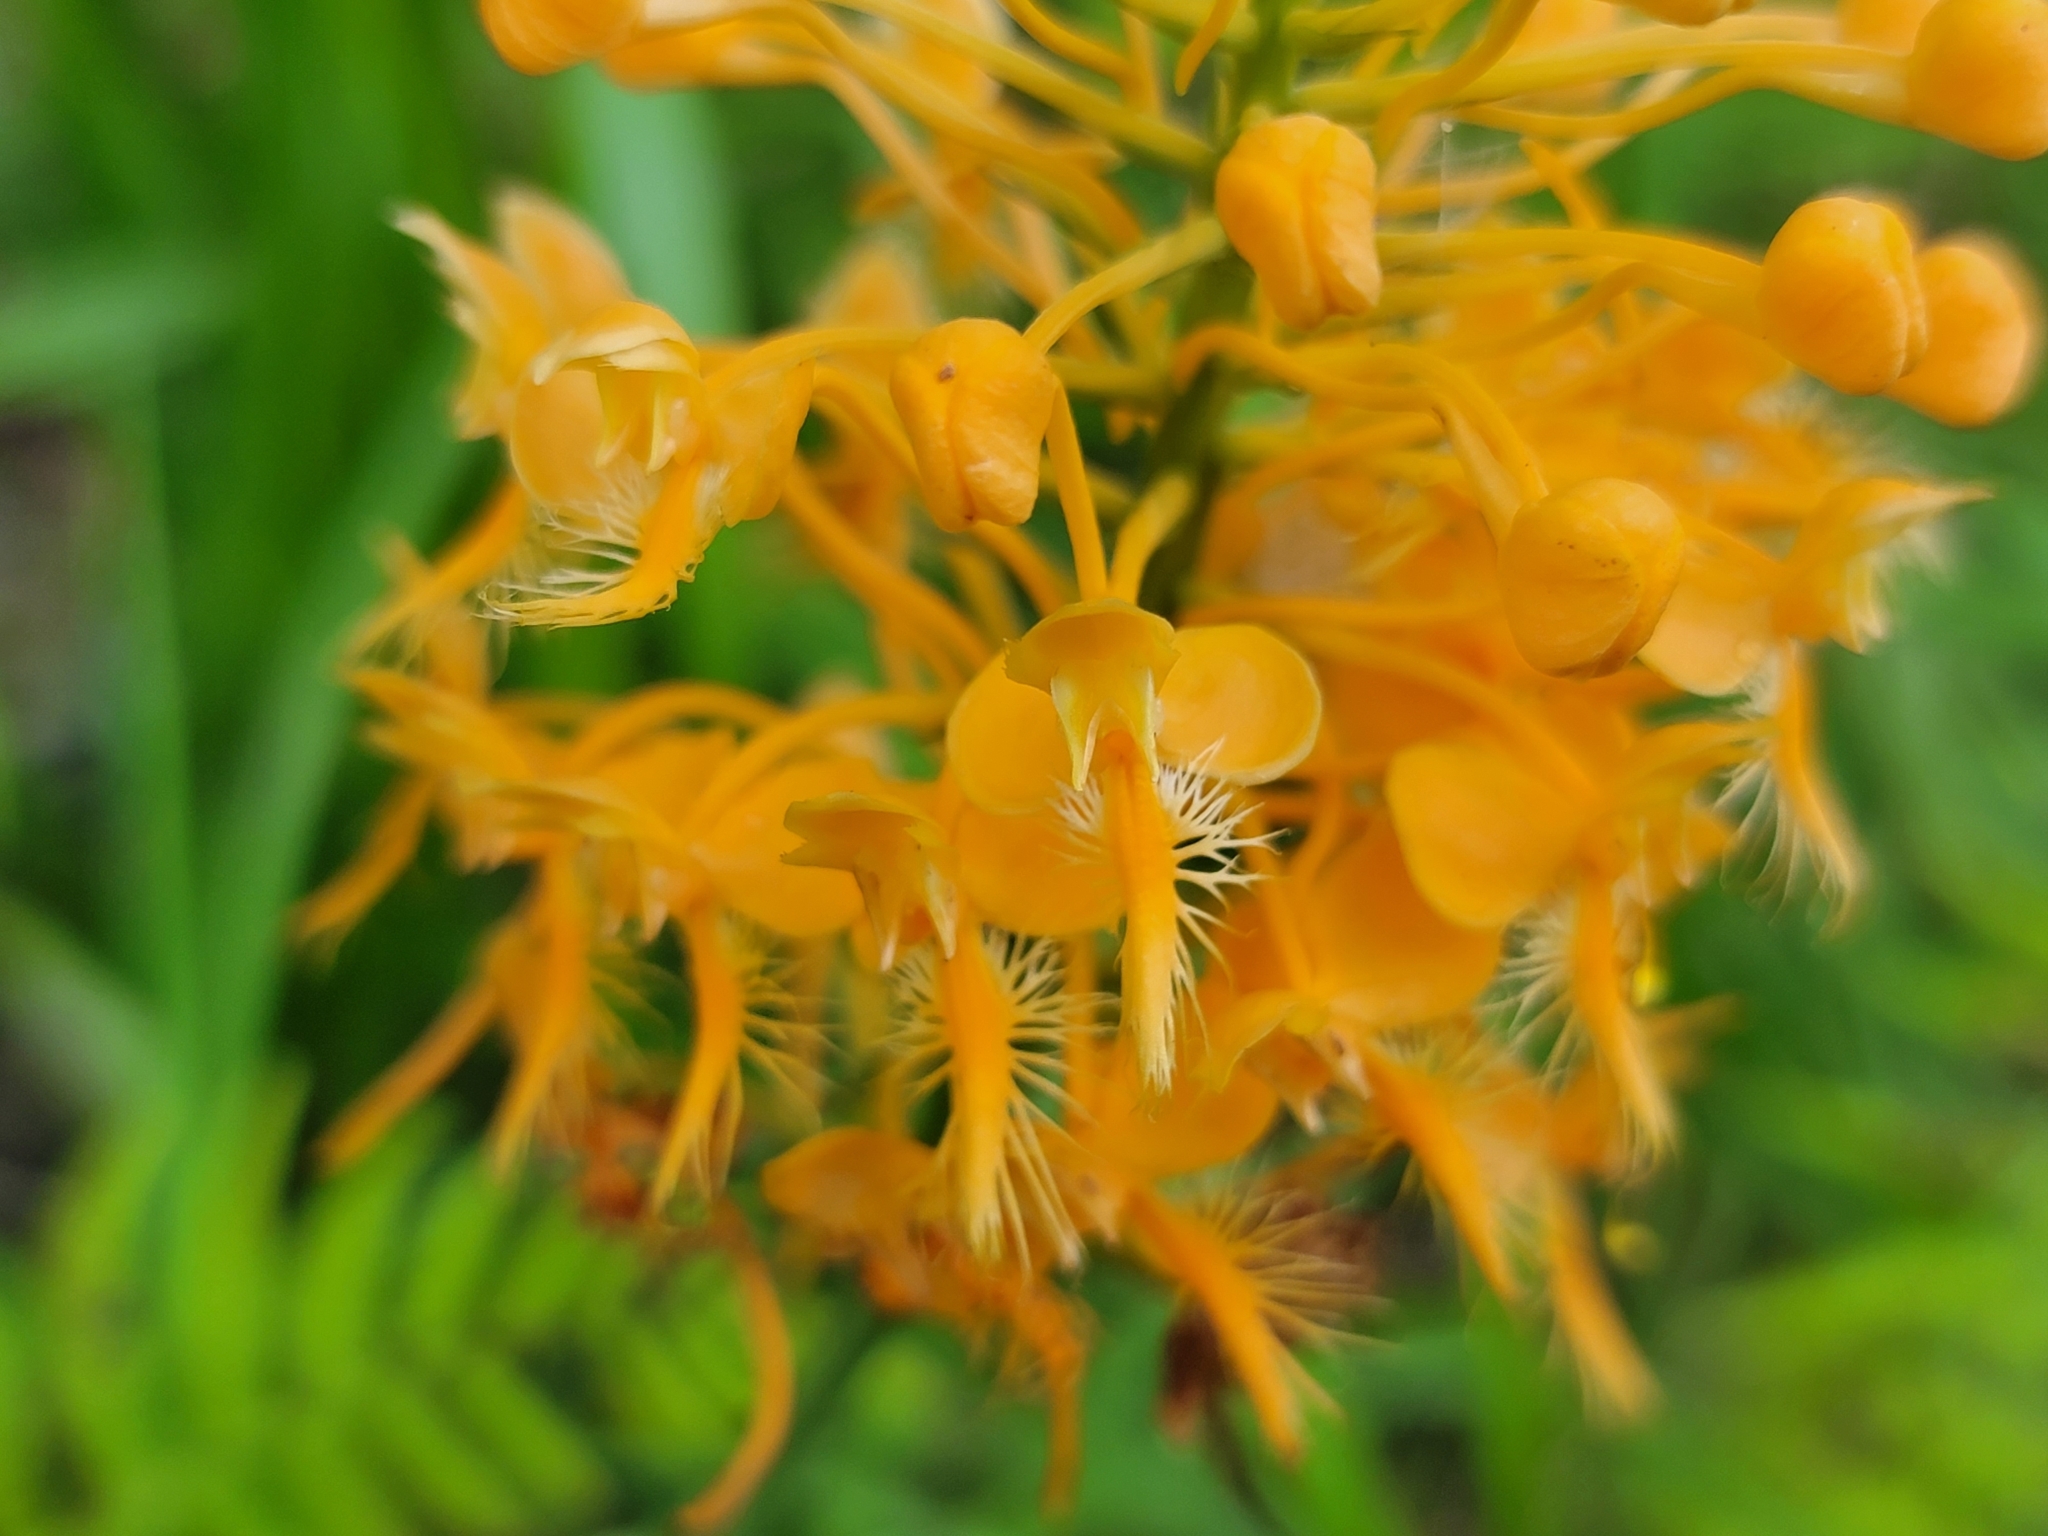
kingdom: Plantae
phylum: Tracheophyta
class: Liliopsida
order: Asparagales
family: Orchidaceae
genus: Platanthera
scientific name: Platanthera ciliaris
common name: Yellow fringed orchid
